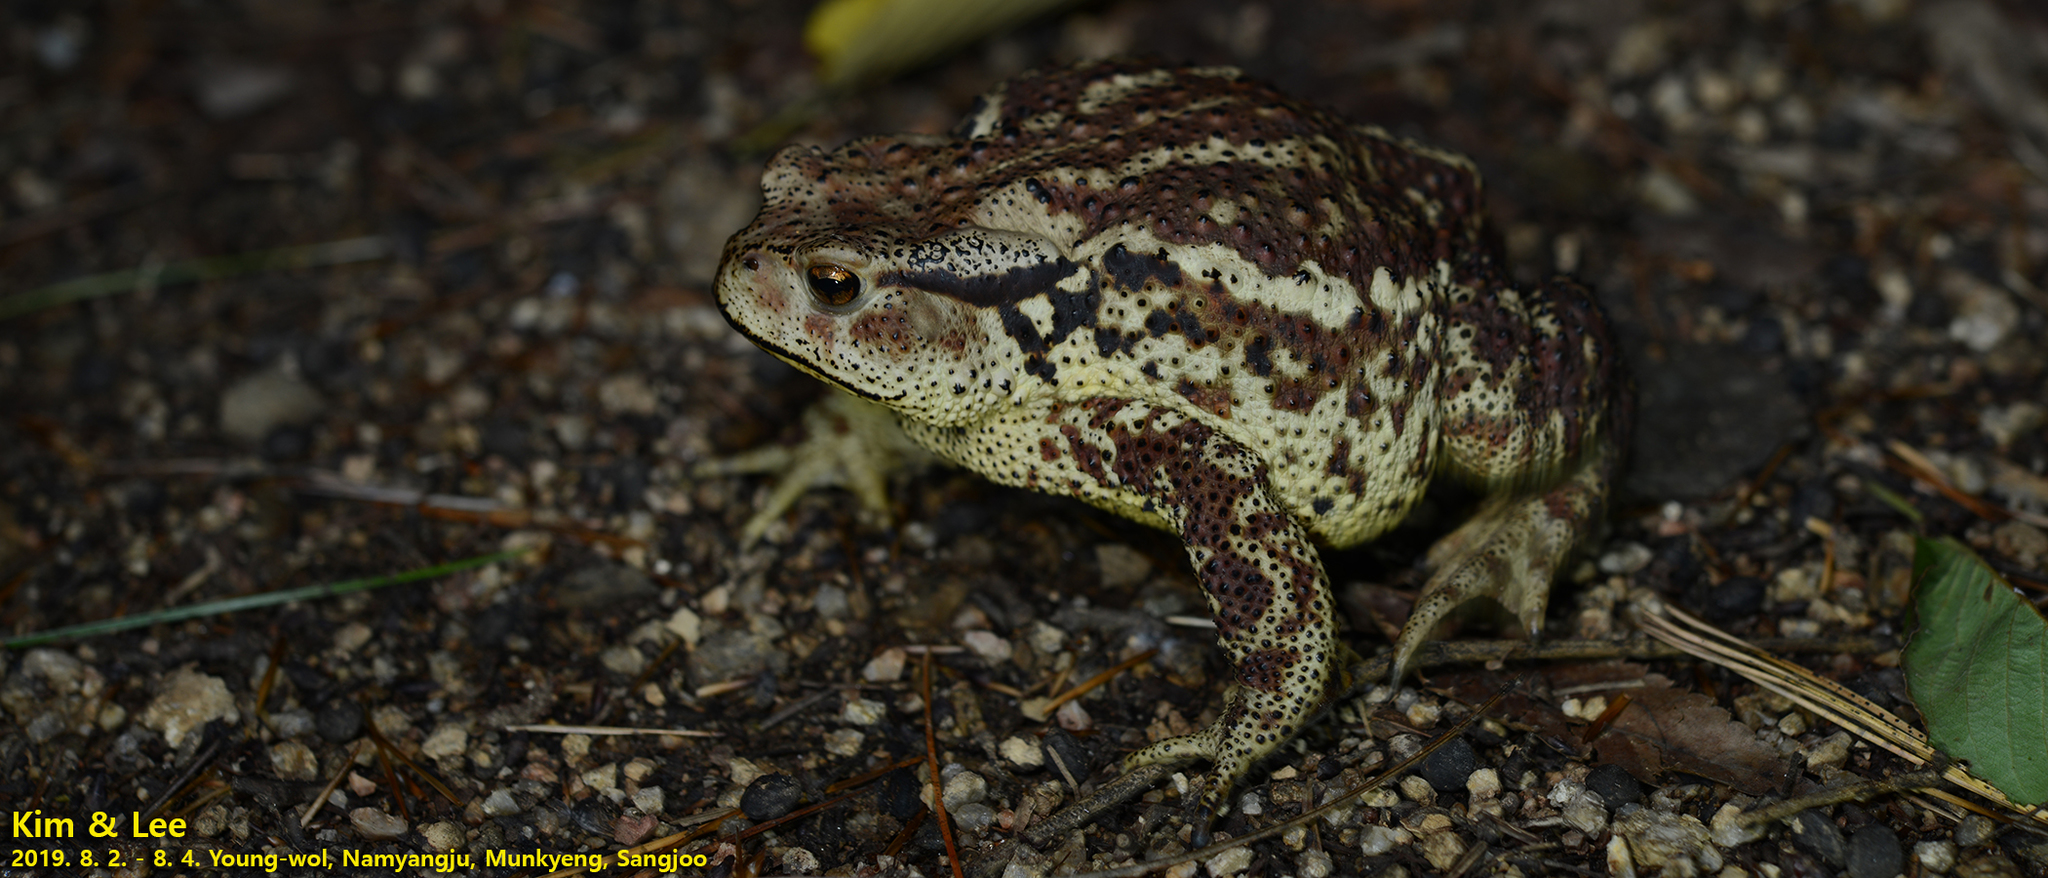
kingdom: Animalia
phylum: Chordata
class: Amphibia
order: Anura
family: Bufonidae
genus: Bufo
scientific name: Bufo gargarizans
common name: Asiatic toad
